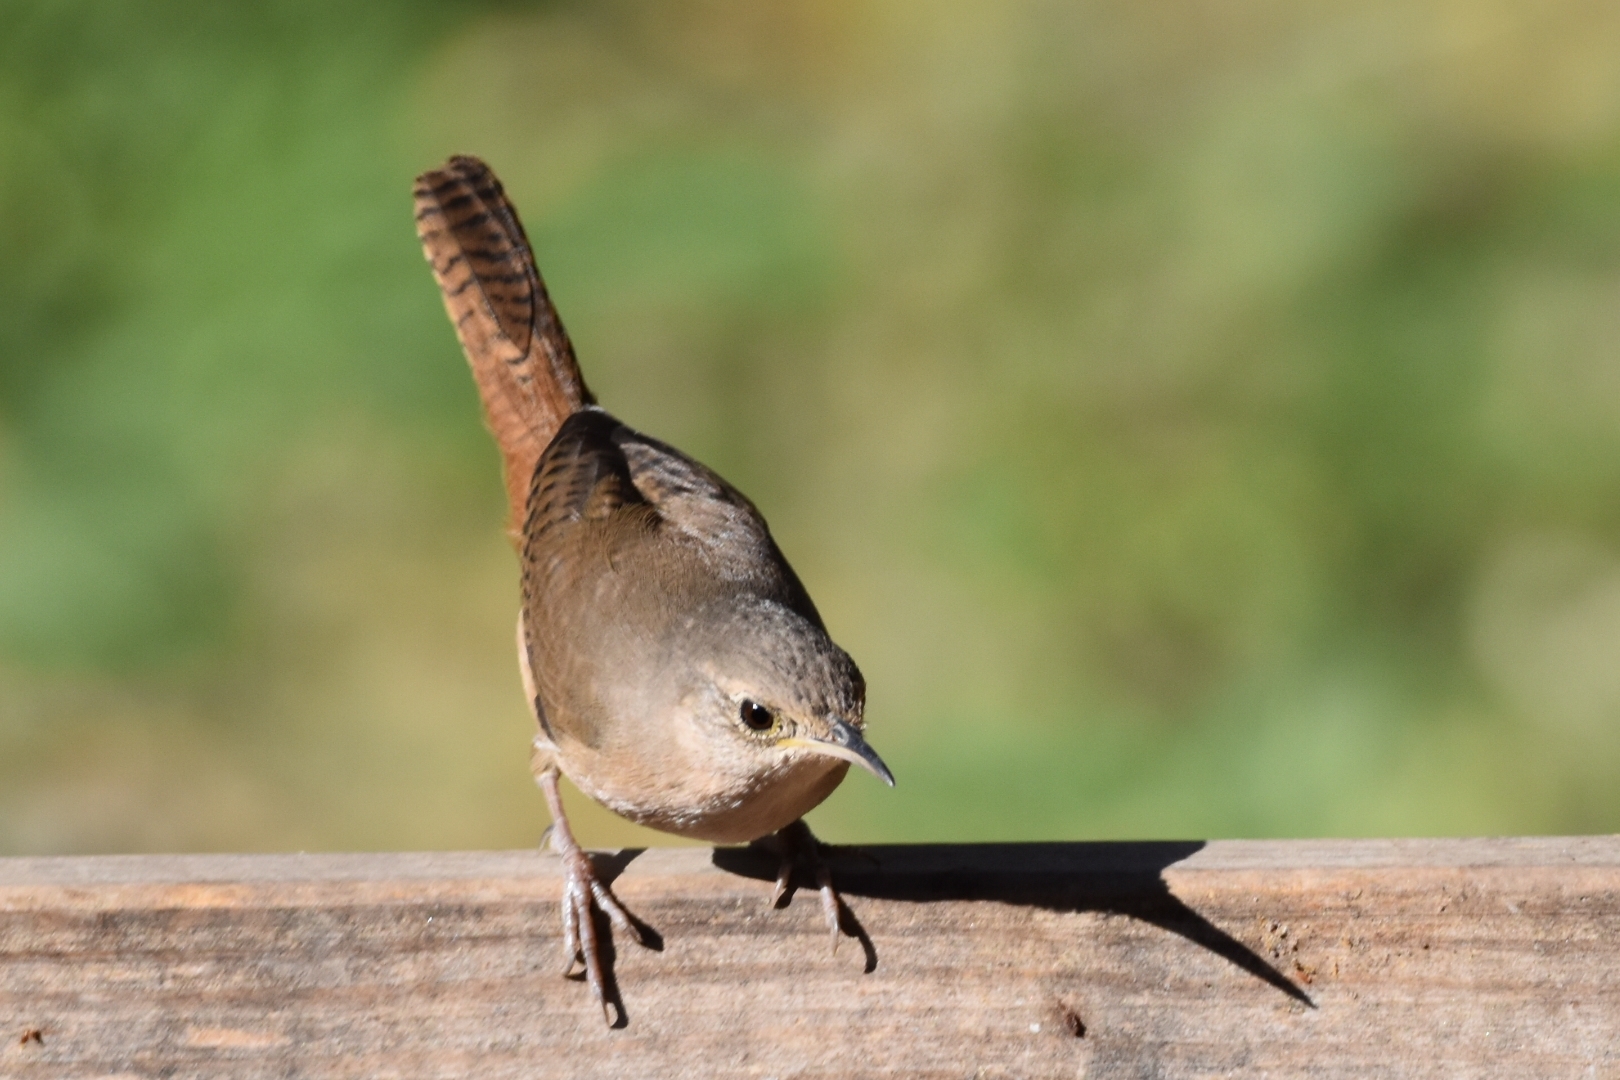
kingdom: Animalia
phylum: Chordata
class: Aves
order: Passeriformes
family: Troglodytidae
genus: Troglodytes
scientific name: Troglodytes aedon
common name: House wren
